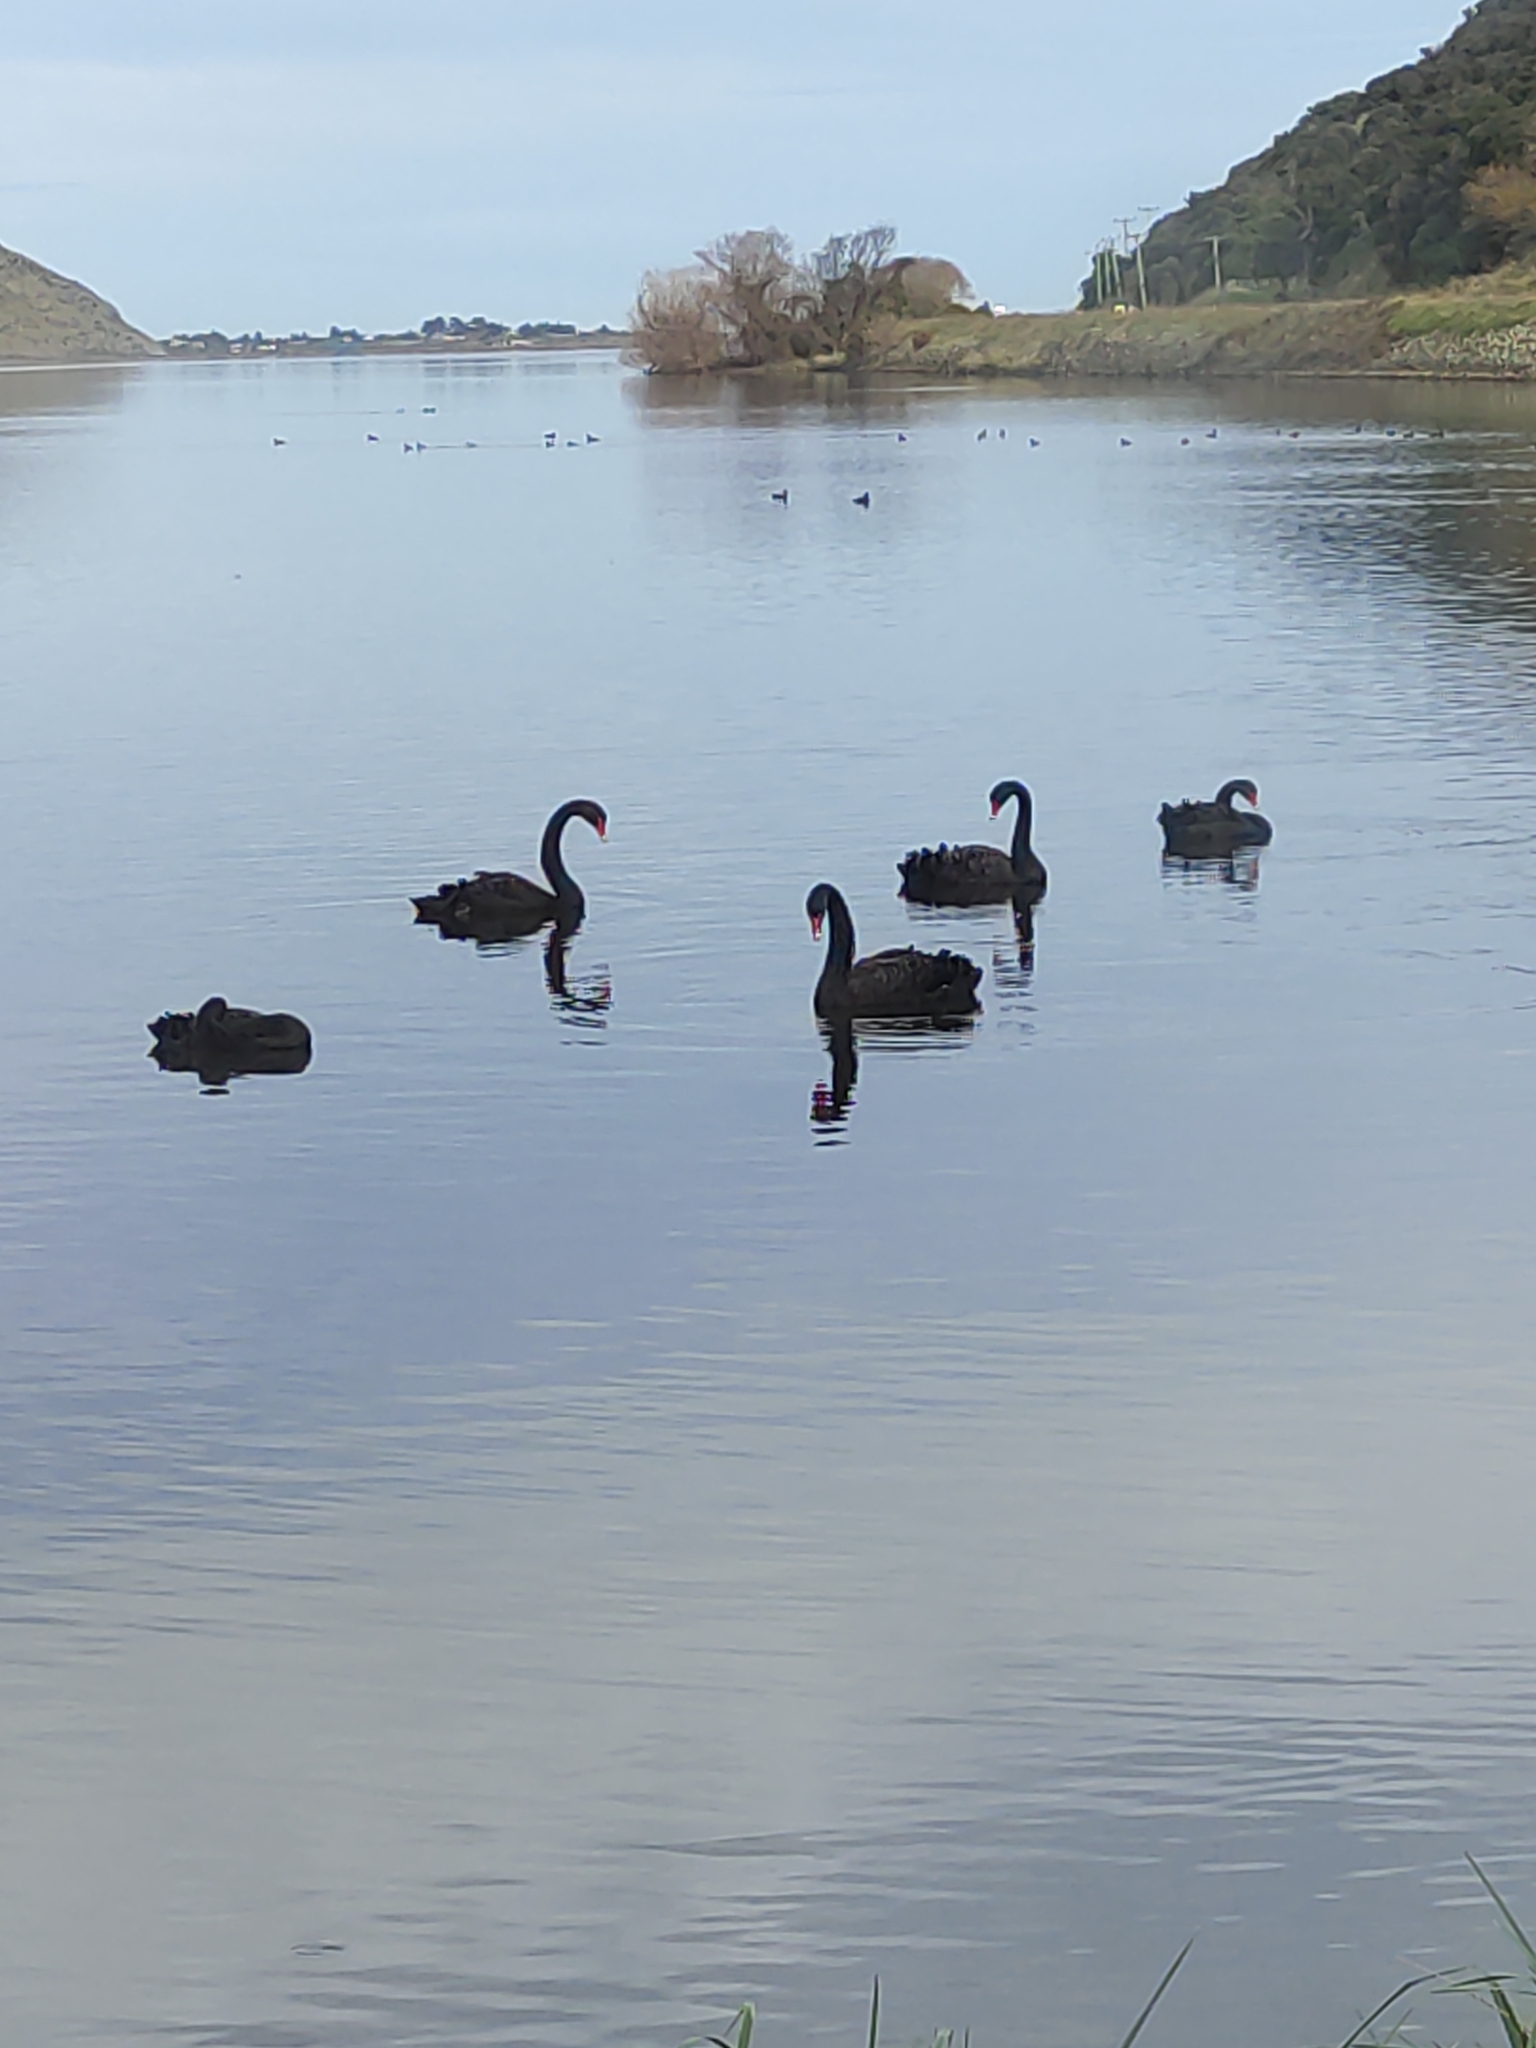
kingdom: Animalia
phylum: Chordata
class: Aves
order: Anseriformes
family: Anatidae
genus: Cygnus
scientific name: Cygnus atratus
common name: Black swan
